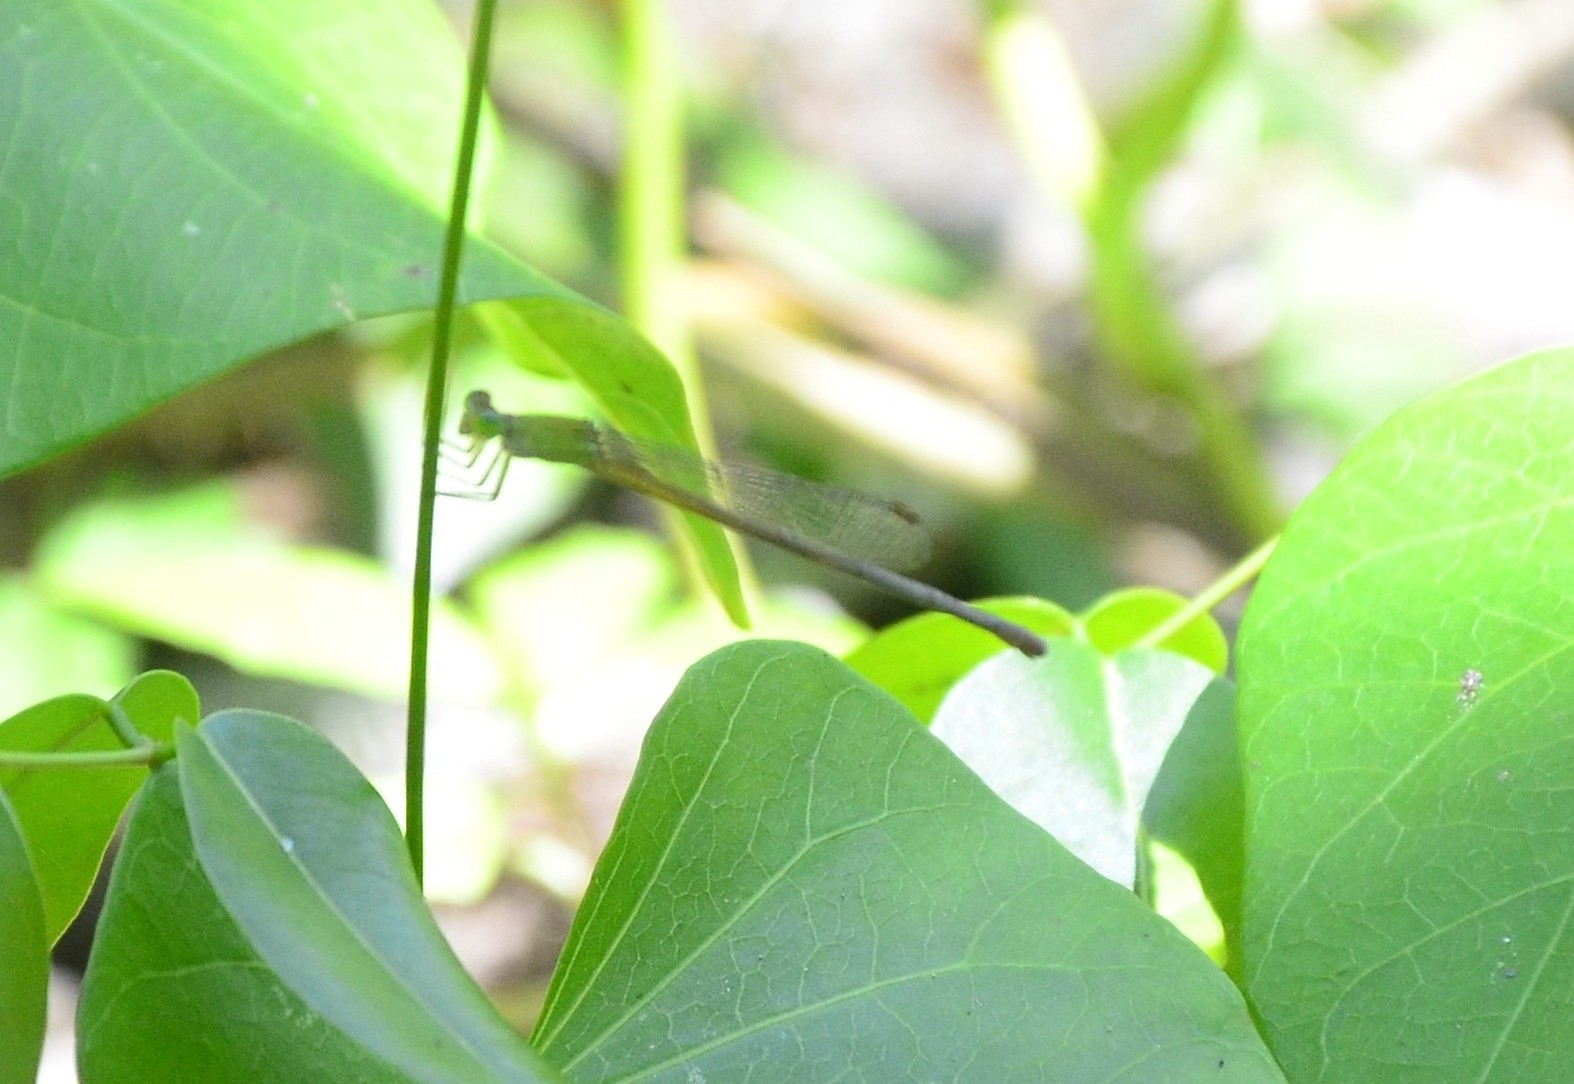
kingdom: Animalia
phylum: Arthropoda
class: Insecta
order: Odonata
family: Coenagrionidae
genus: Ceriagrion
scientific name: Ceriagrion coromandelianum
